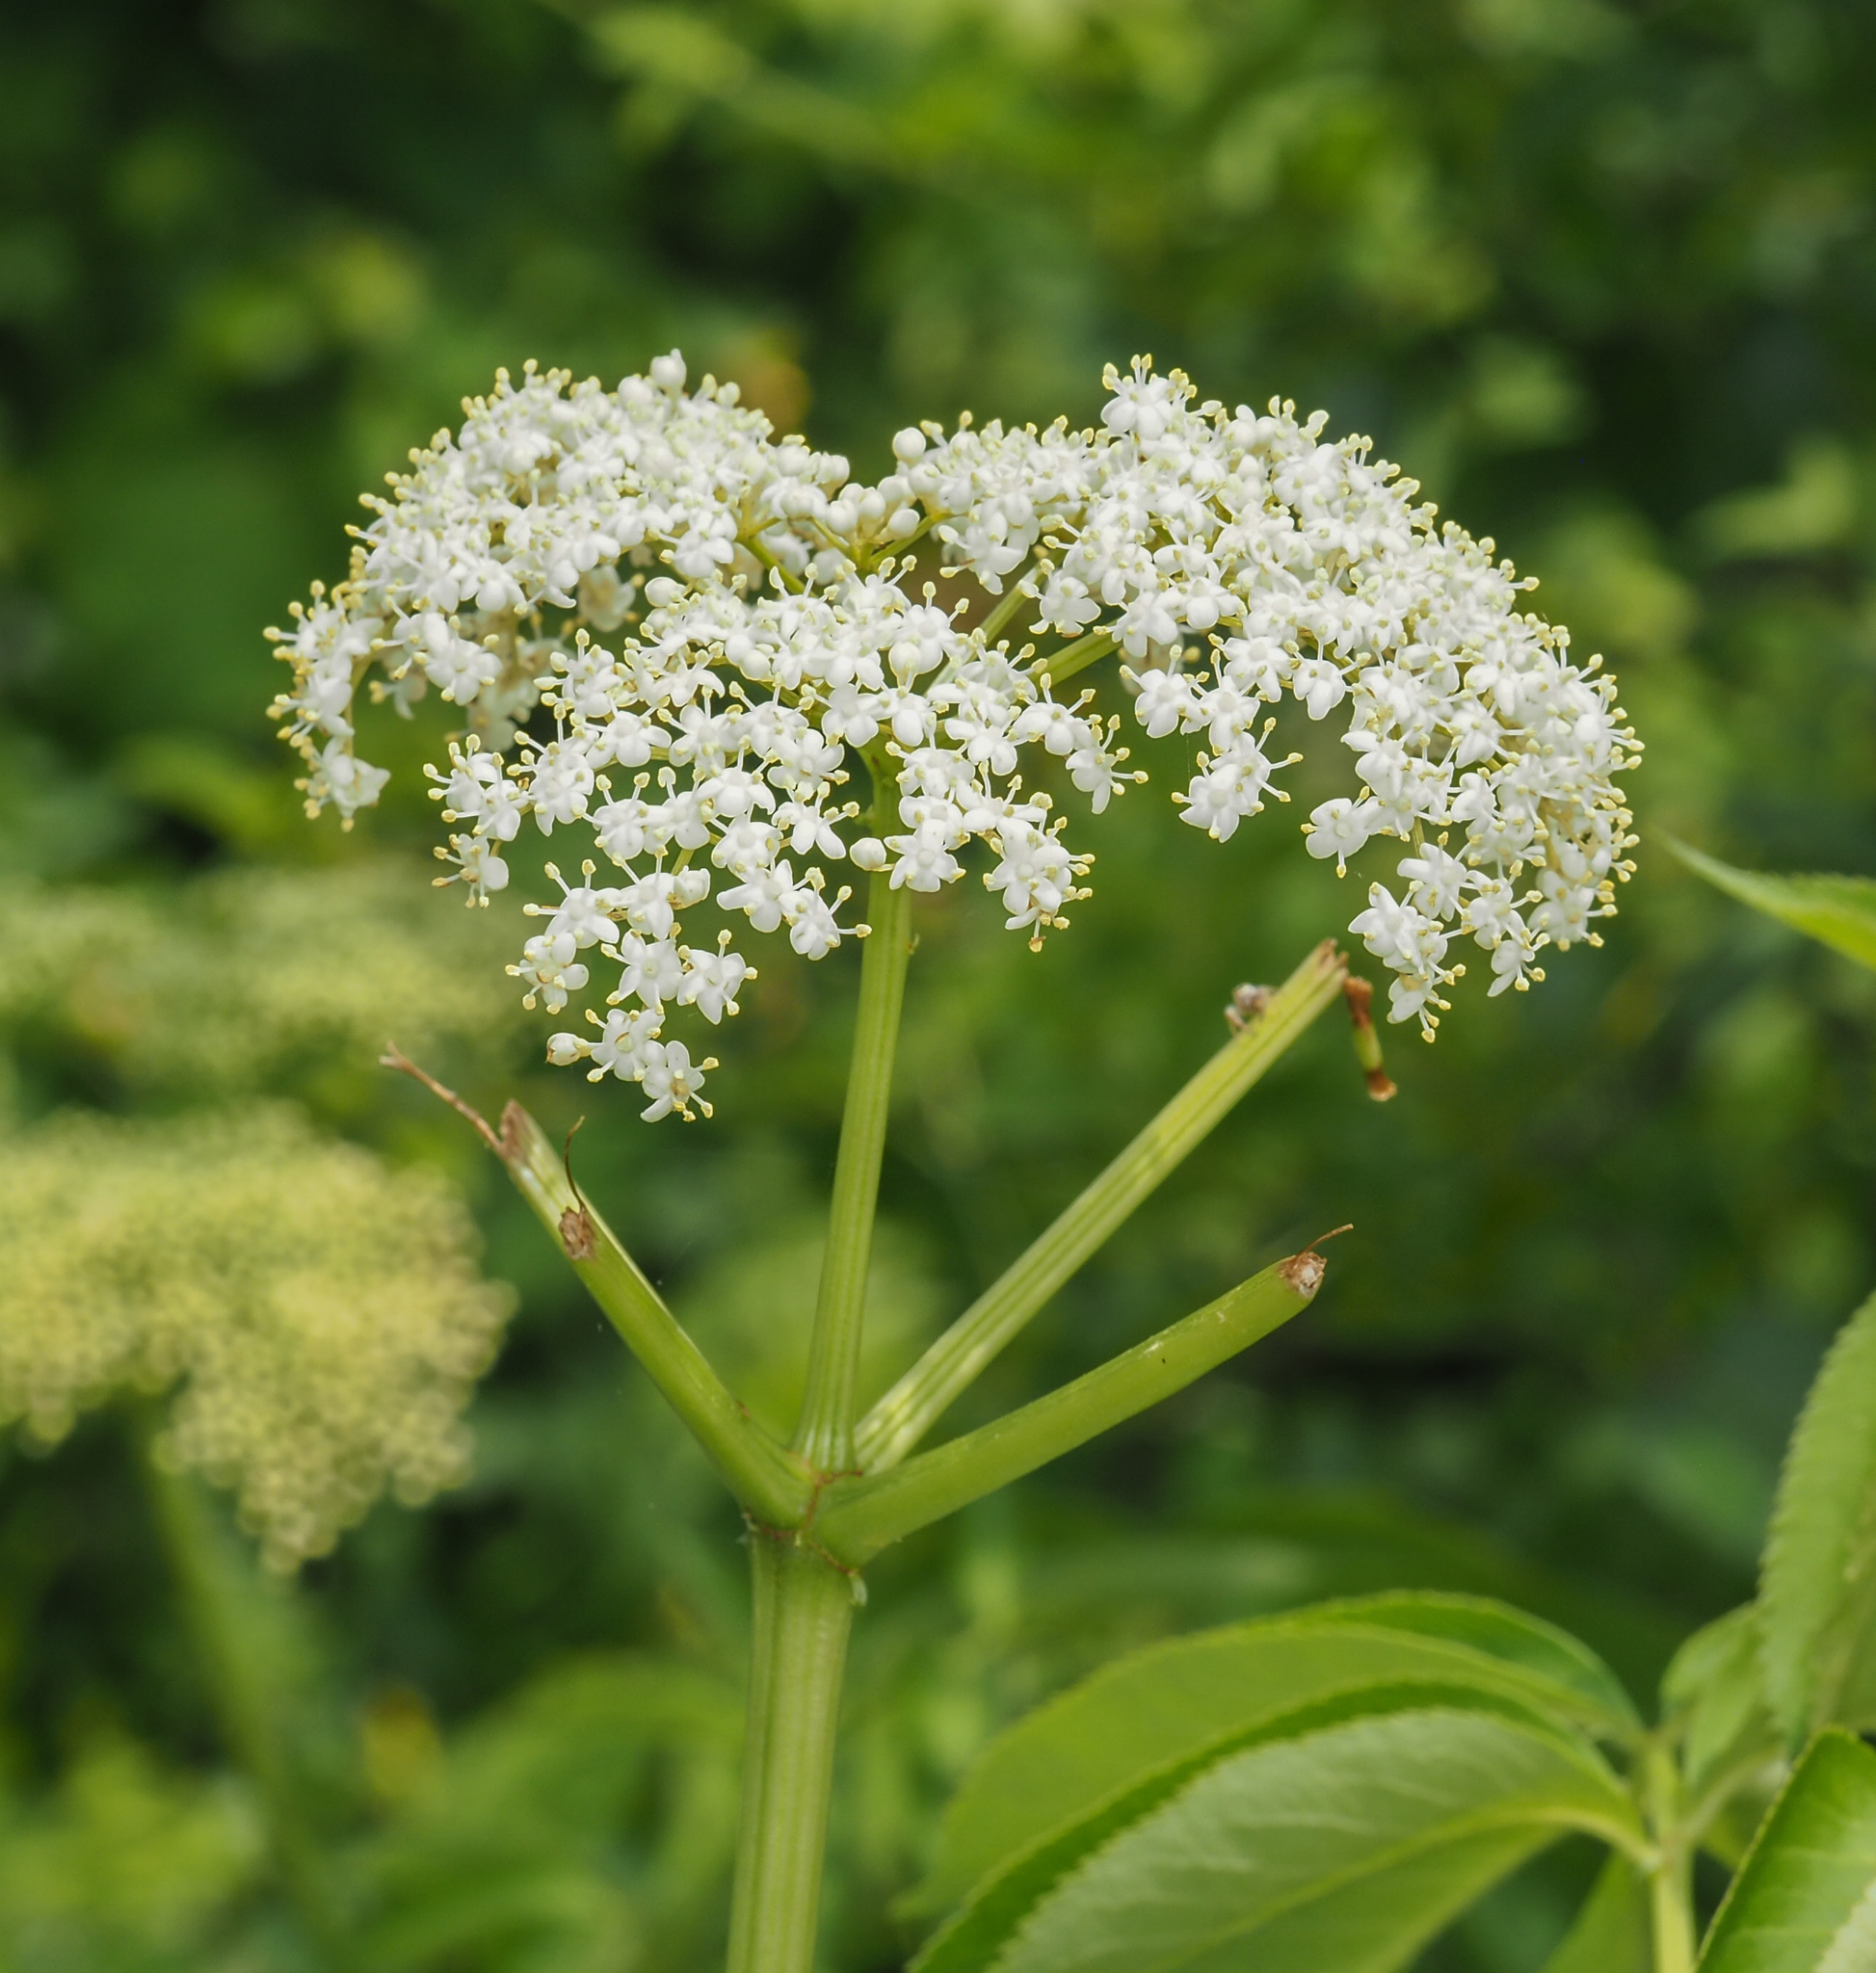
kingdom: Plantae
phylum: Tracheophyta
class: Magnoliopsida
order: Dipsacales
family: Viburnaceae
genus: Sambucus
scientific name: Sambucus canadensis
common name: American elder
